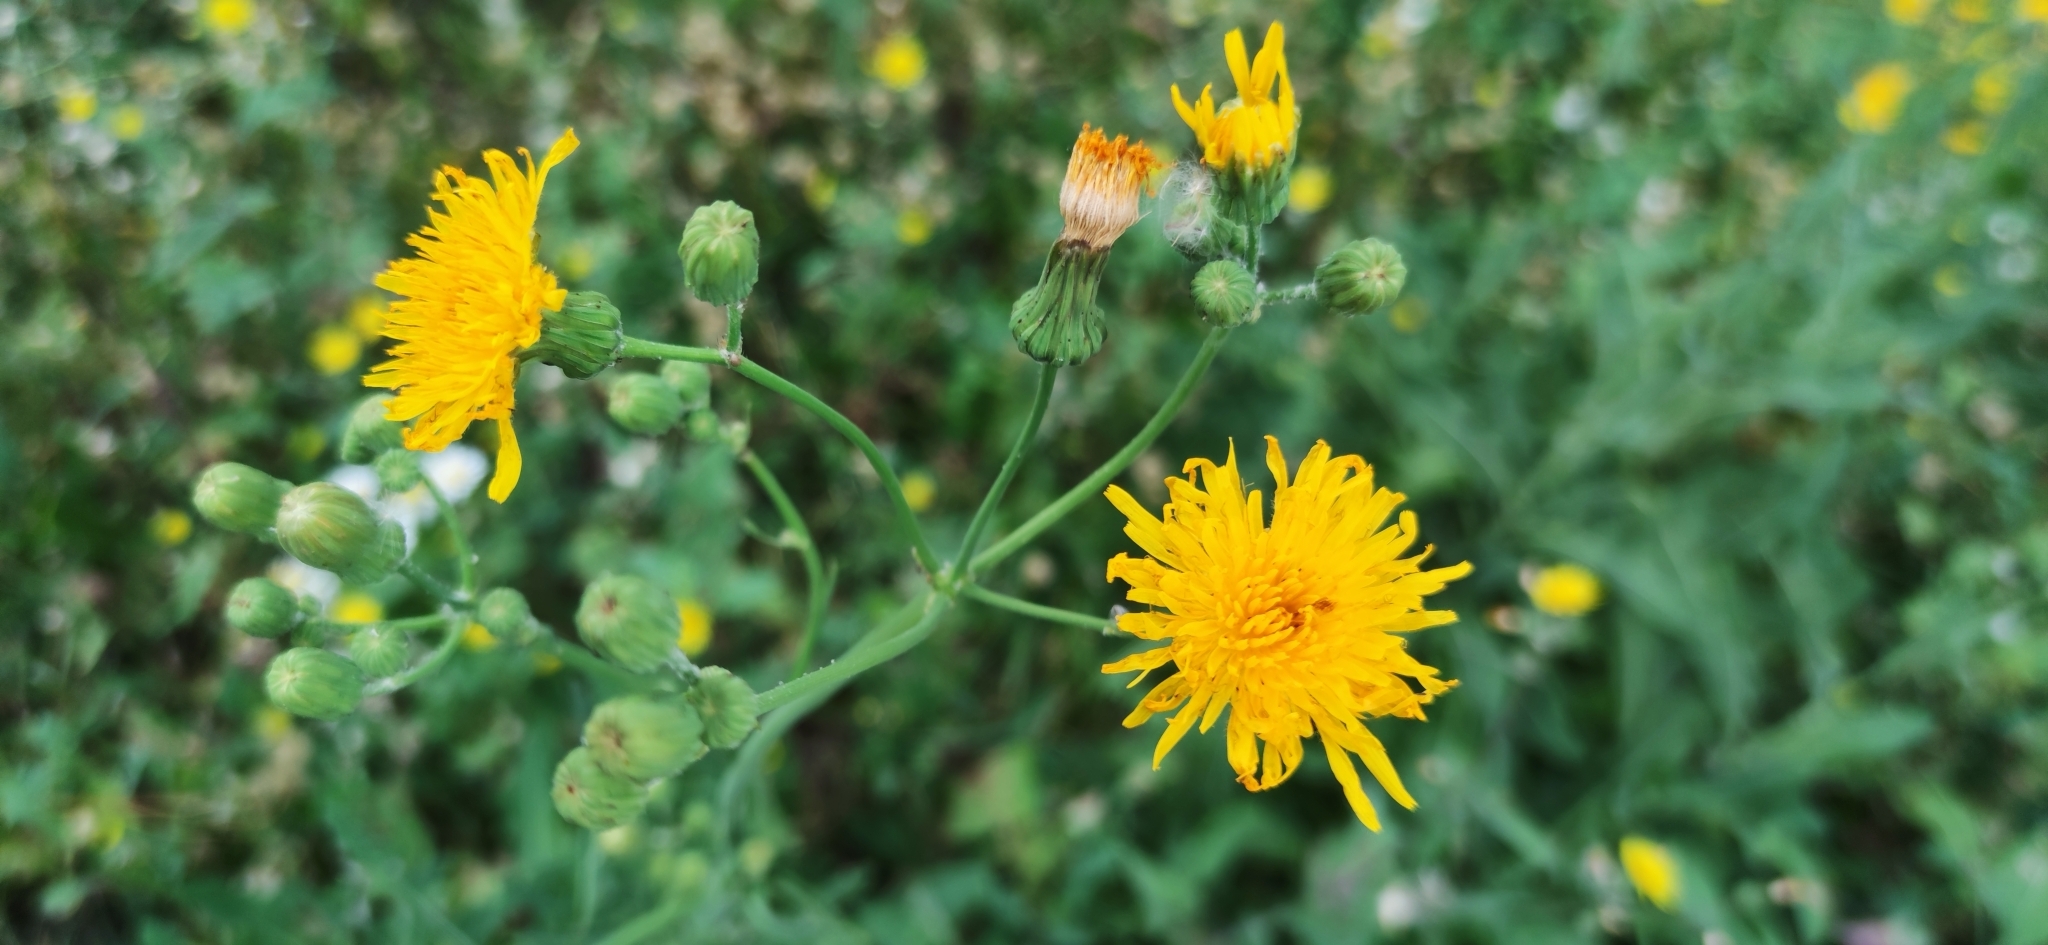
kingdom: Plantae
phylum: Tracheophyta
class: Magnoliopsida
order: Asterales
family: Asteraceae
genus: Sonchus
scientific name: Sonchus arvensis
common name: Perennial sow-thistle
